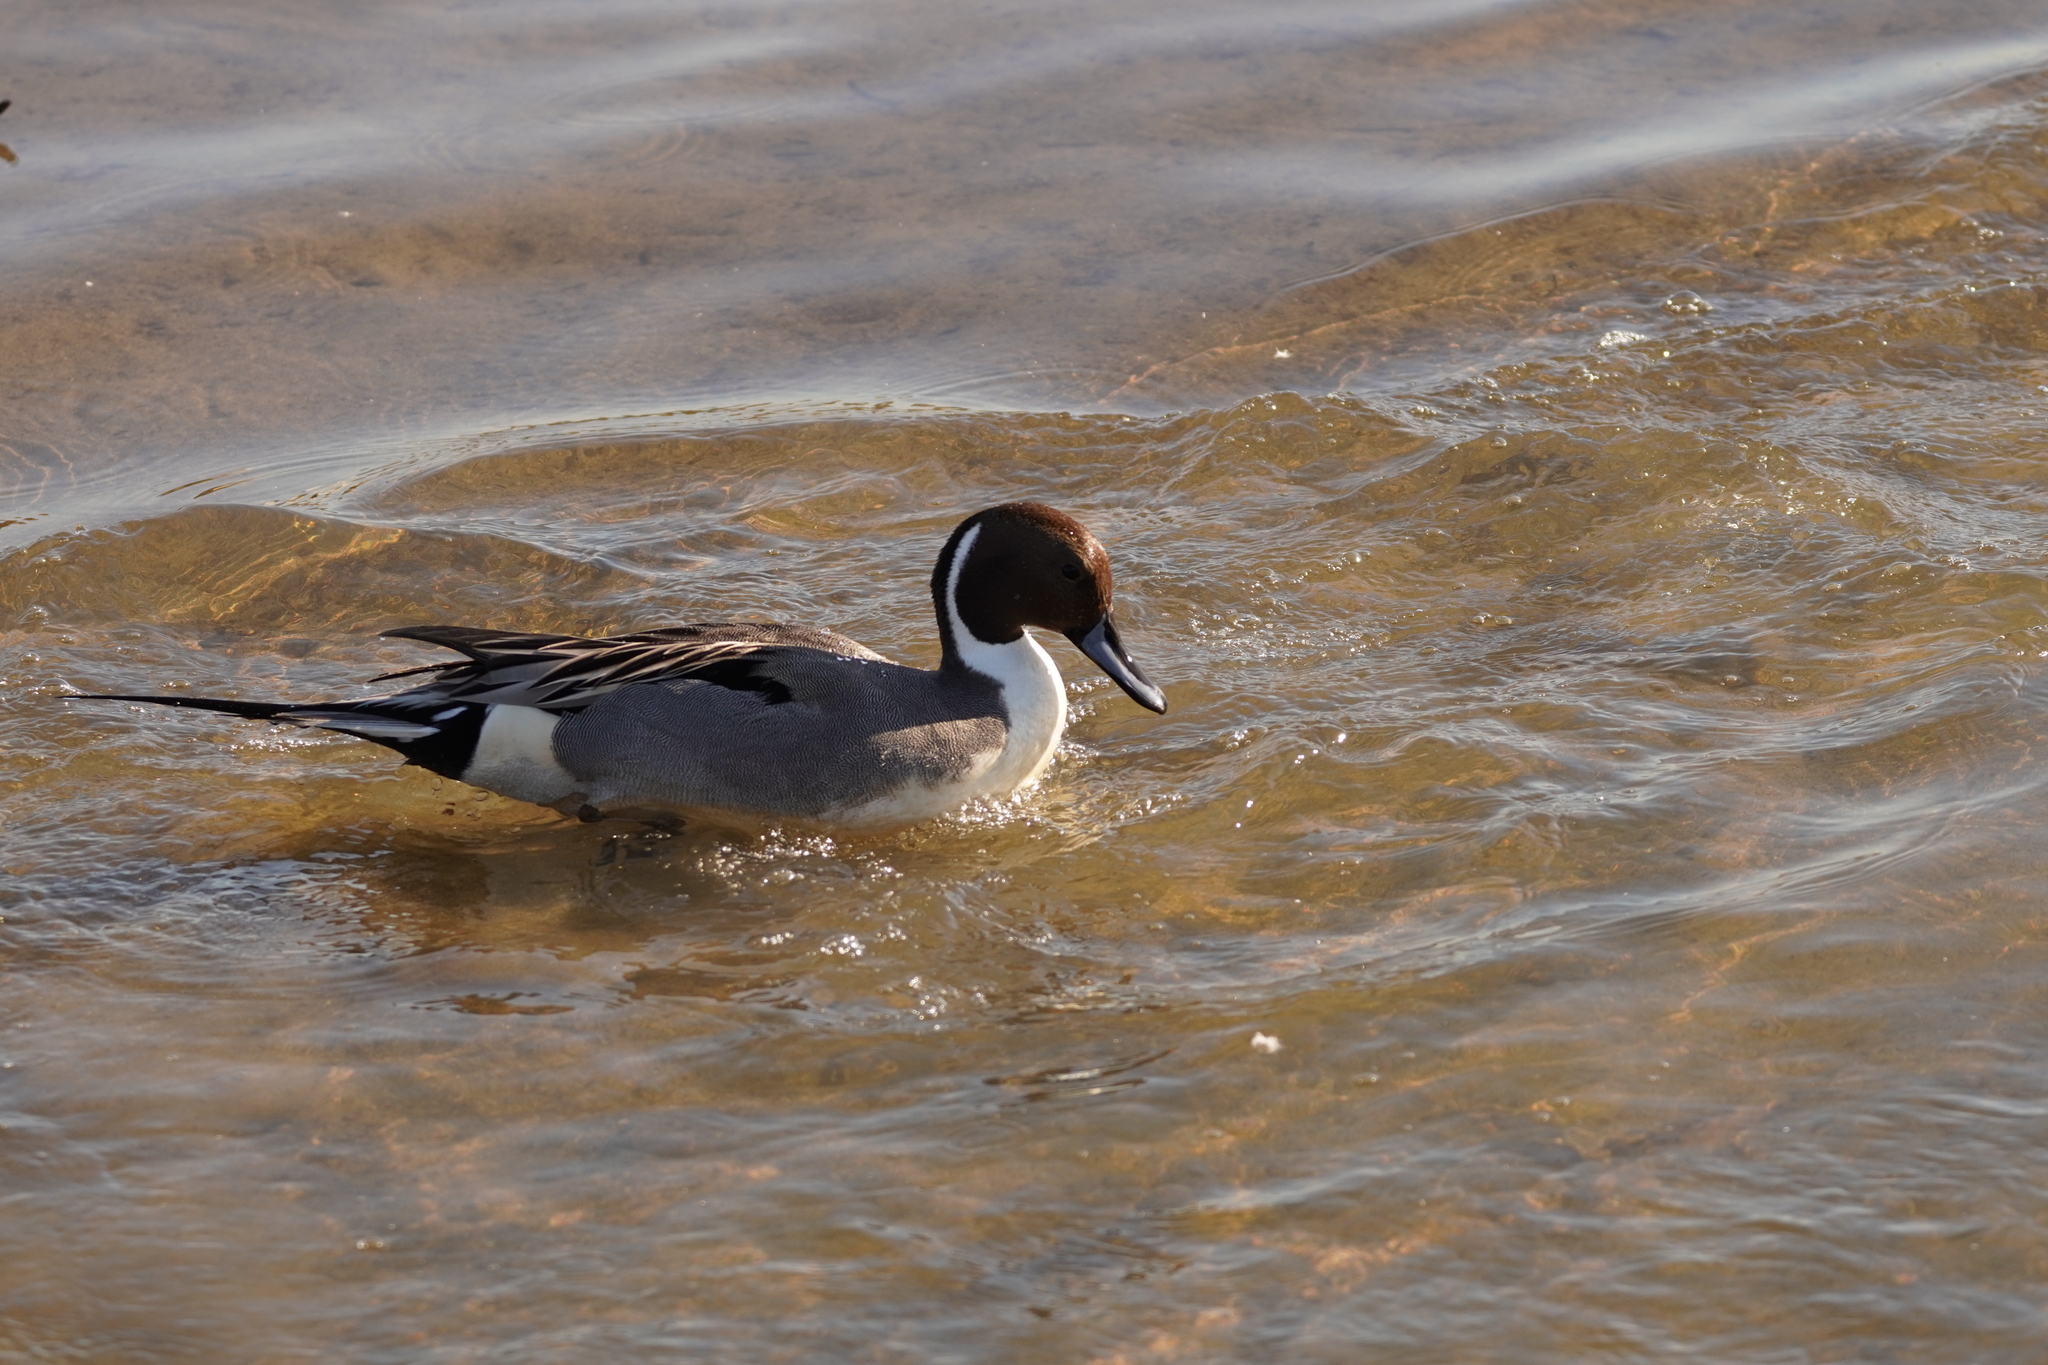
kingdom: Animalia
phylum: Chordata
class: Aves
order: Anseriformes
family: Anatidae
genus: Anas
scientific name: Anas acuta
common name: Northern pintail
